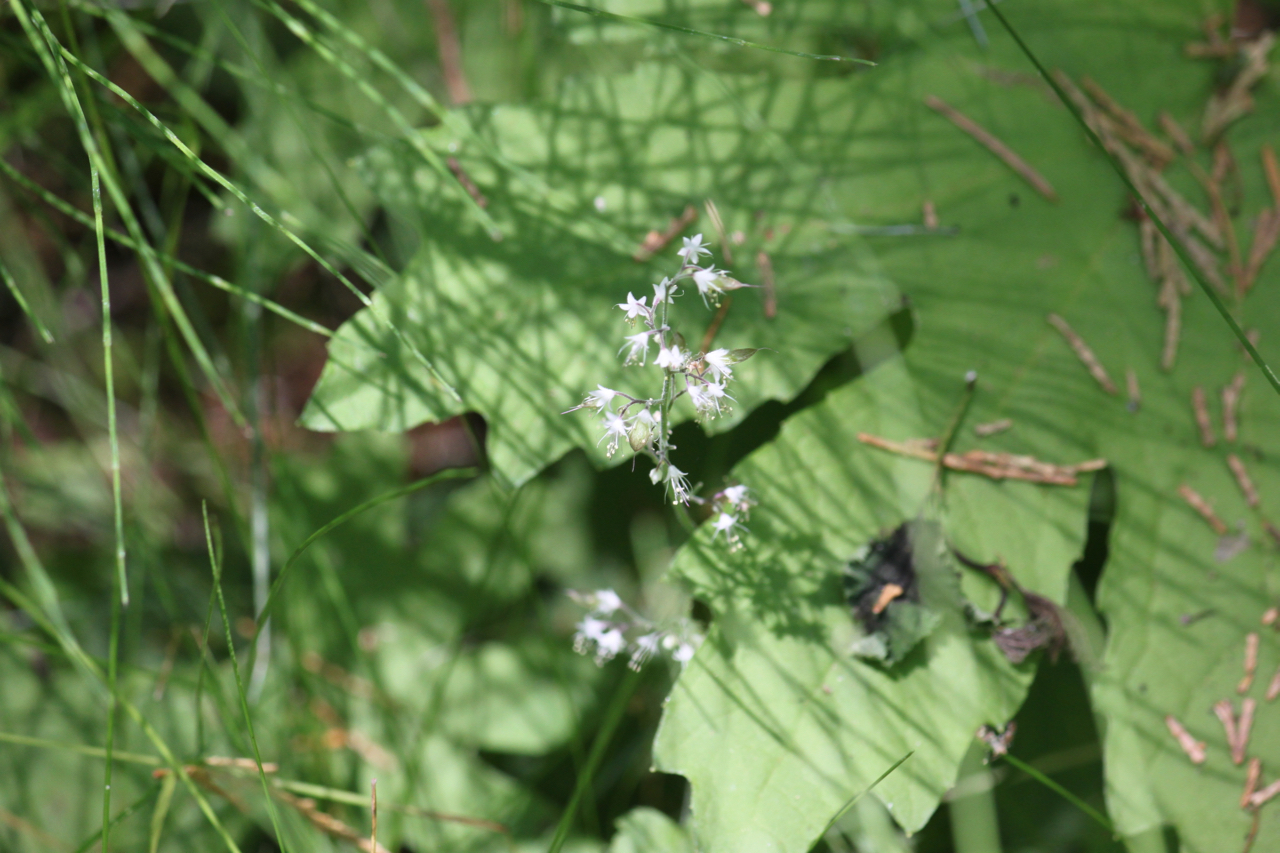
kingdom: Plantae
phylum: Tracheophyta
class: Magnoliopsida
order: Saxifragales
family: Saxifragaceae
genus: Tiarella
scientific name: Tiarella trifoliata
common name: Sugar-scoop
